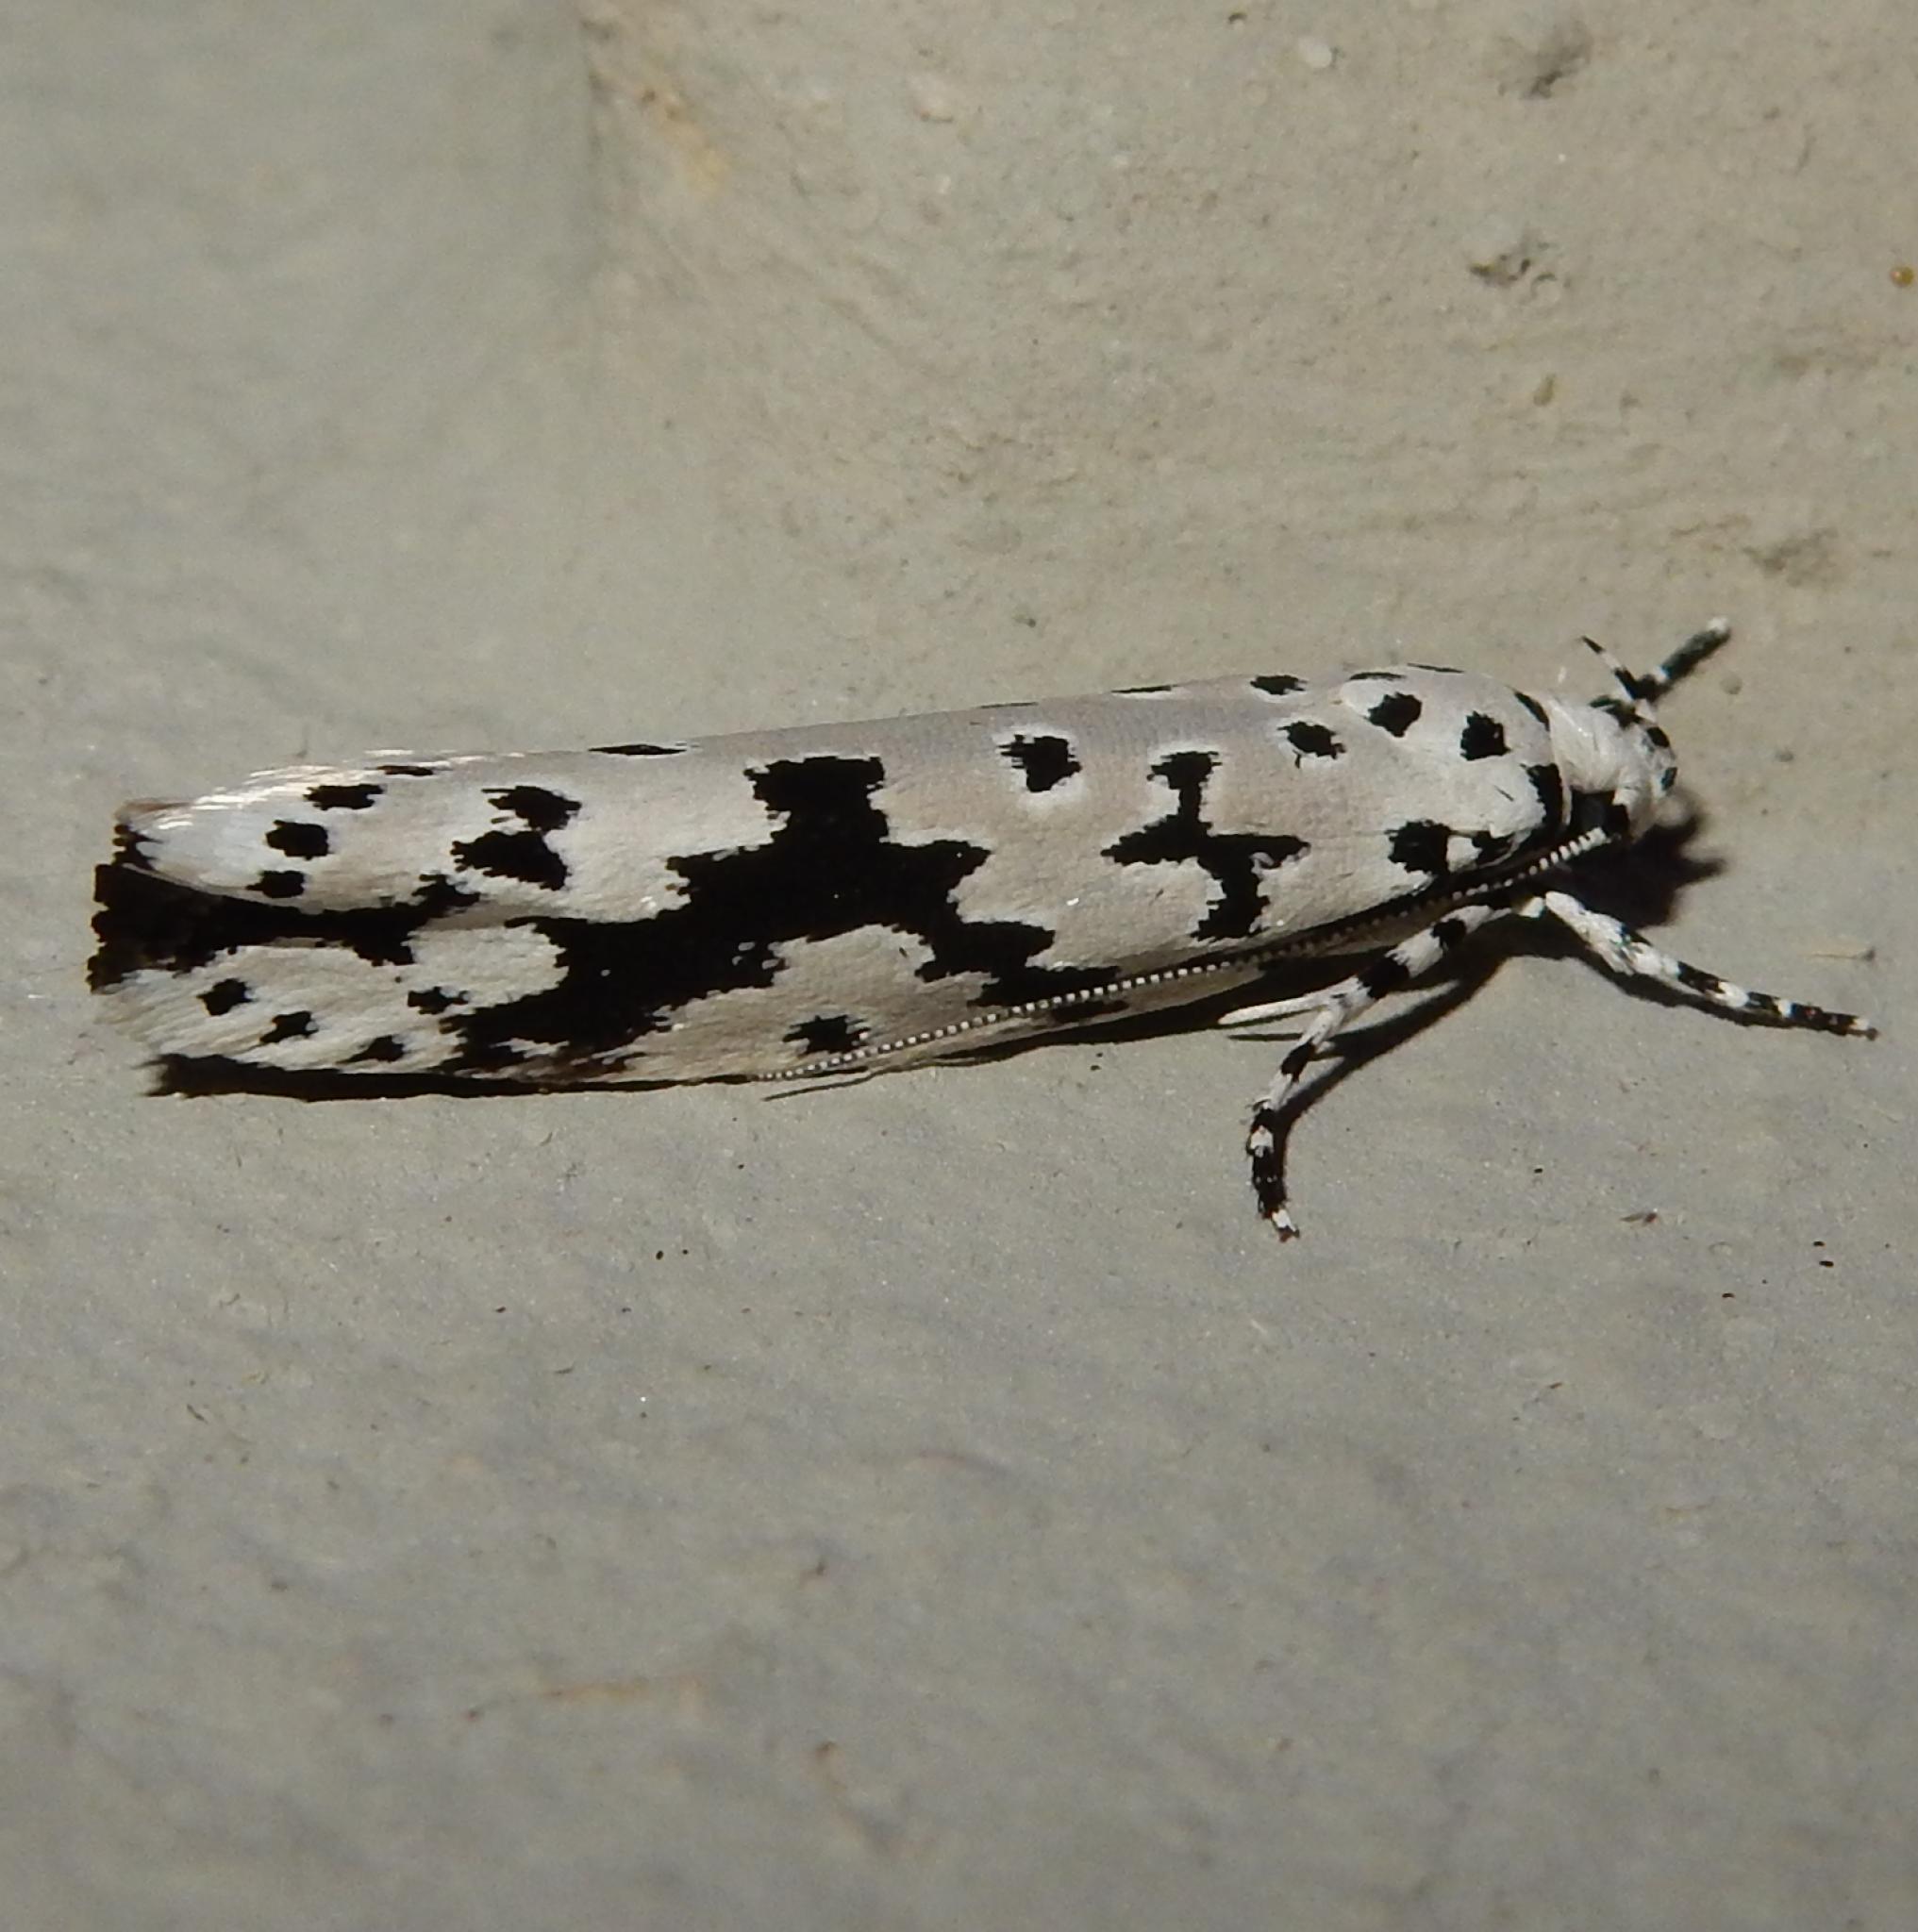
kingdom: Animalia
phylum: Arthropoda
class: Insecta
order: Lepidoptera
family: Ethmiidae
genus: Ethmia
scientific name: Ethmia sabiella
